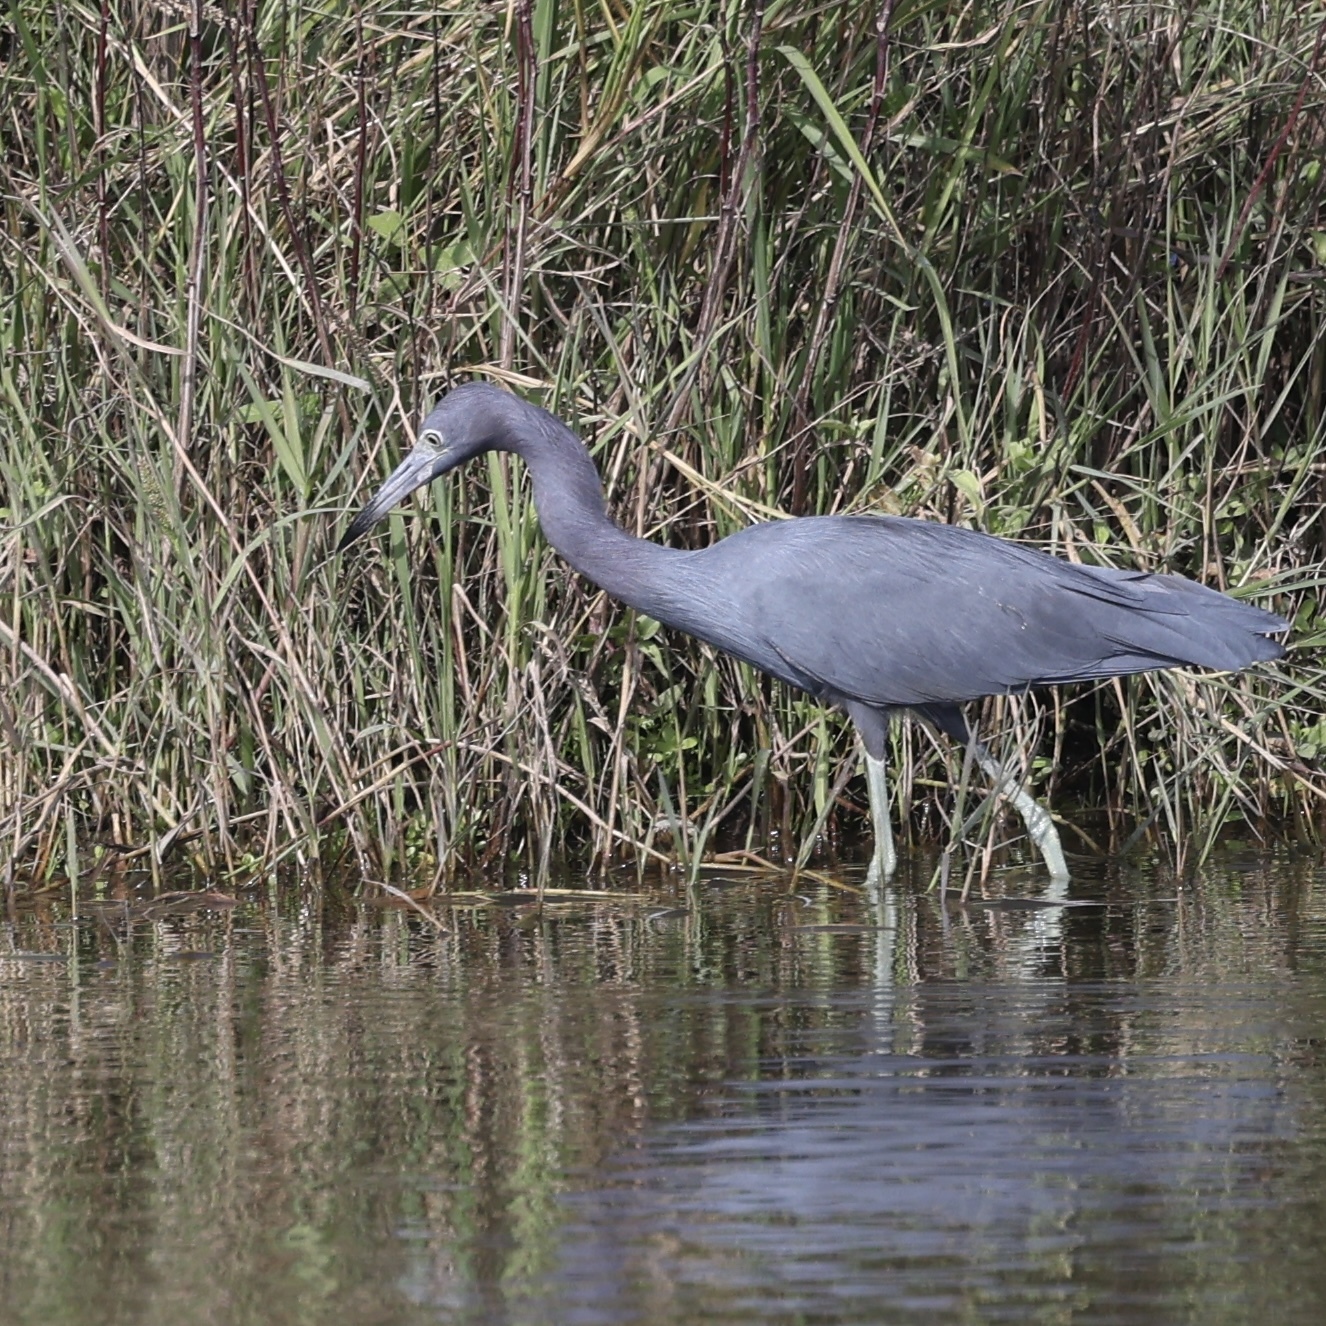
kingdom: Animalia
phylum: Chordata
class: Aves
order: Pelecaniformes
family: Ardeidae
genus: Egretta
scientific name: Egretta caerulea
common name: Little blue heron
